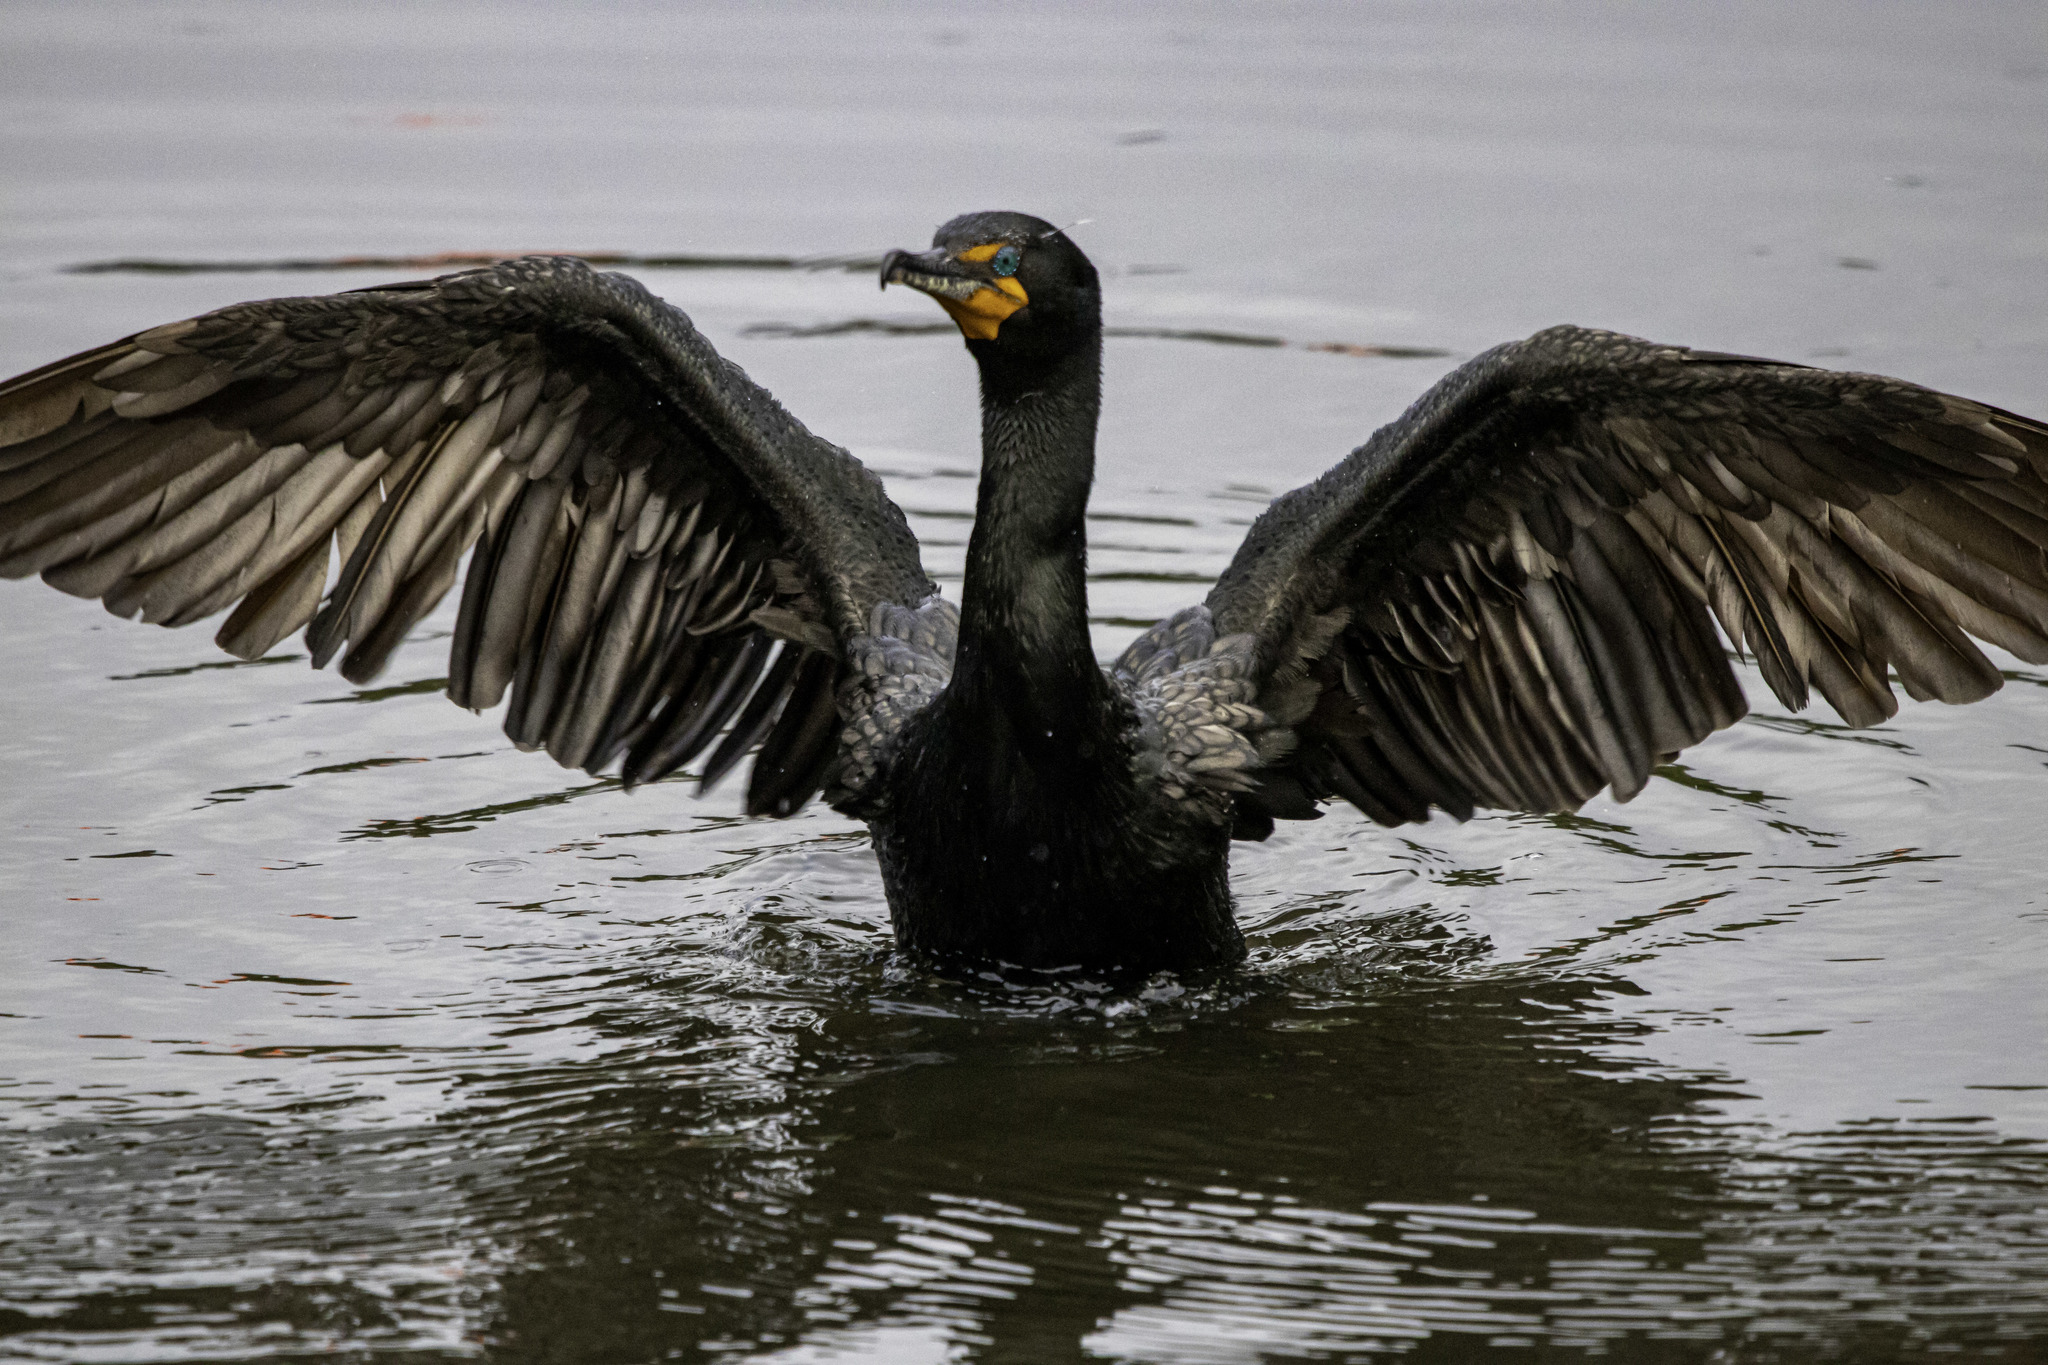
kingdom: Animalia
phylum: Chordata
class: Aves
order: Suliformes
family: Phalacrocoracidae
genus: Phalacrocorax
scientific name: Phalacrocorax auritus
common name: Double-crested cormorant
